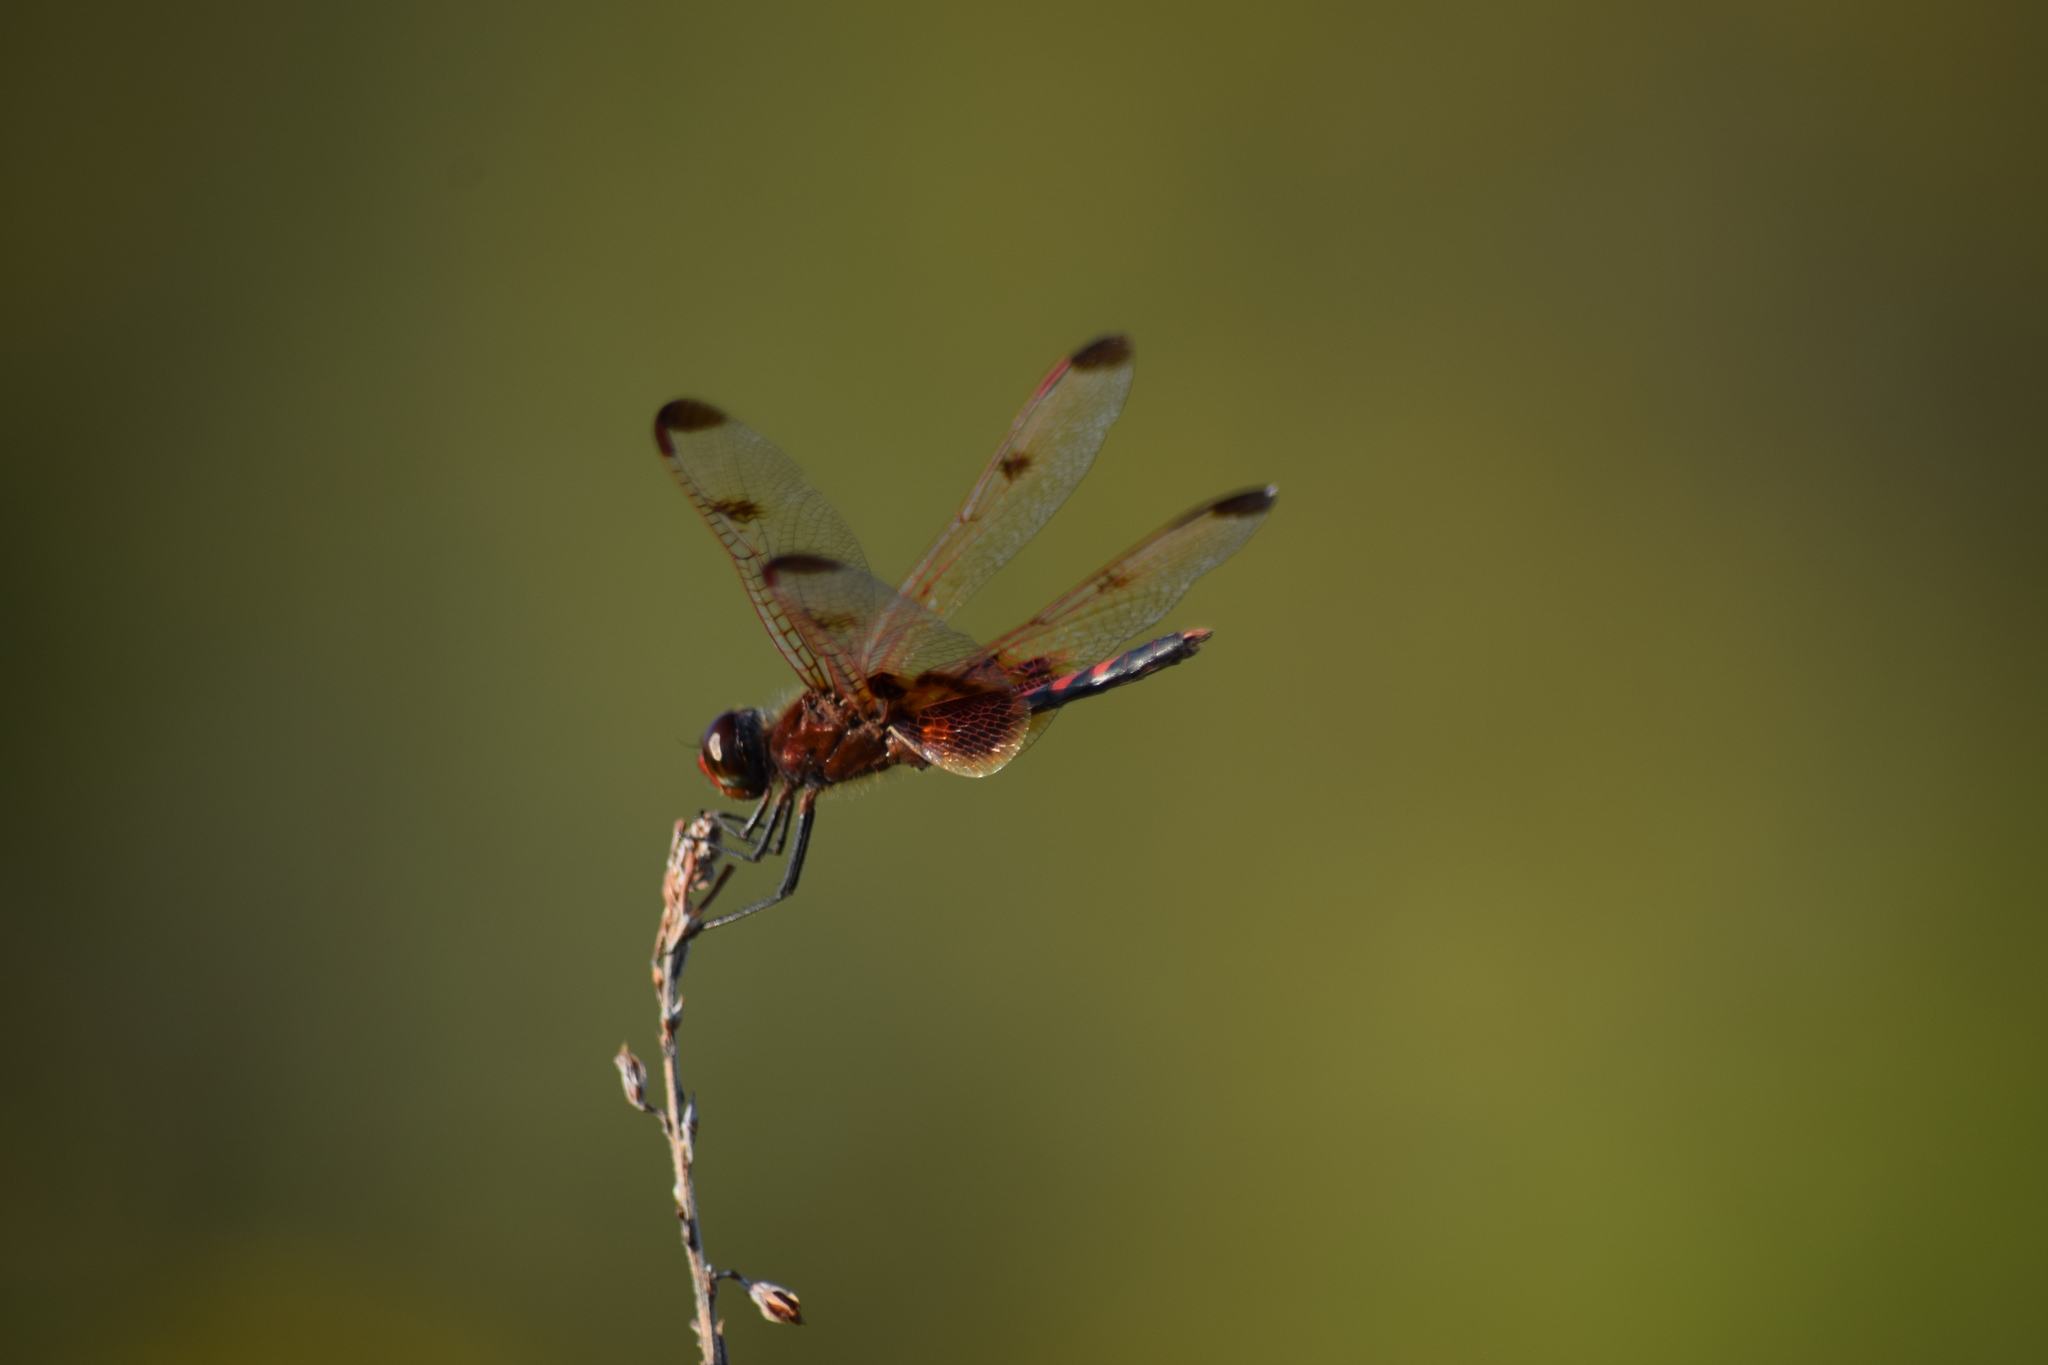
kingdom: Animalia
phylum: Arthropoda
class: Insecta
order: Odonata
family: Libellulidae
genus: Celithemis
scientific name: Celithemis elisa
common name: Calico pennant
